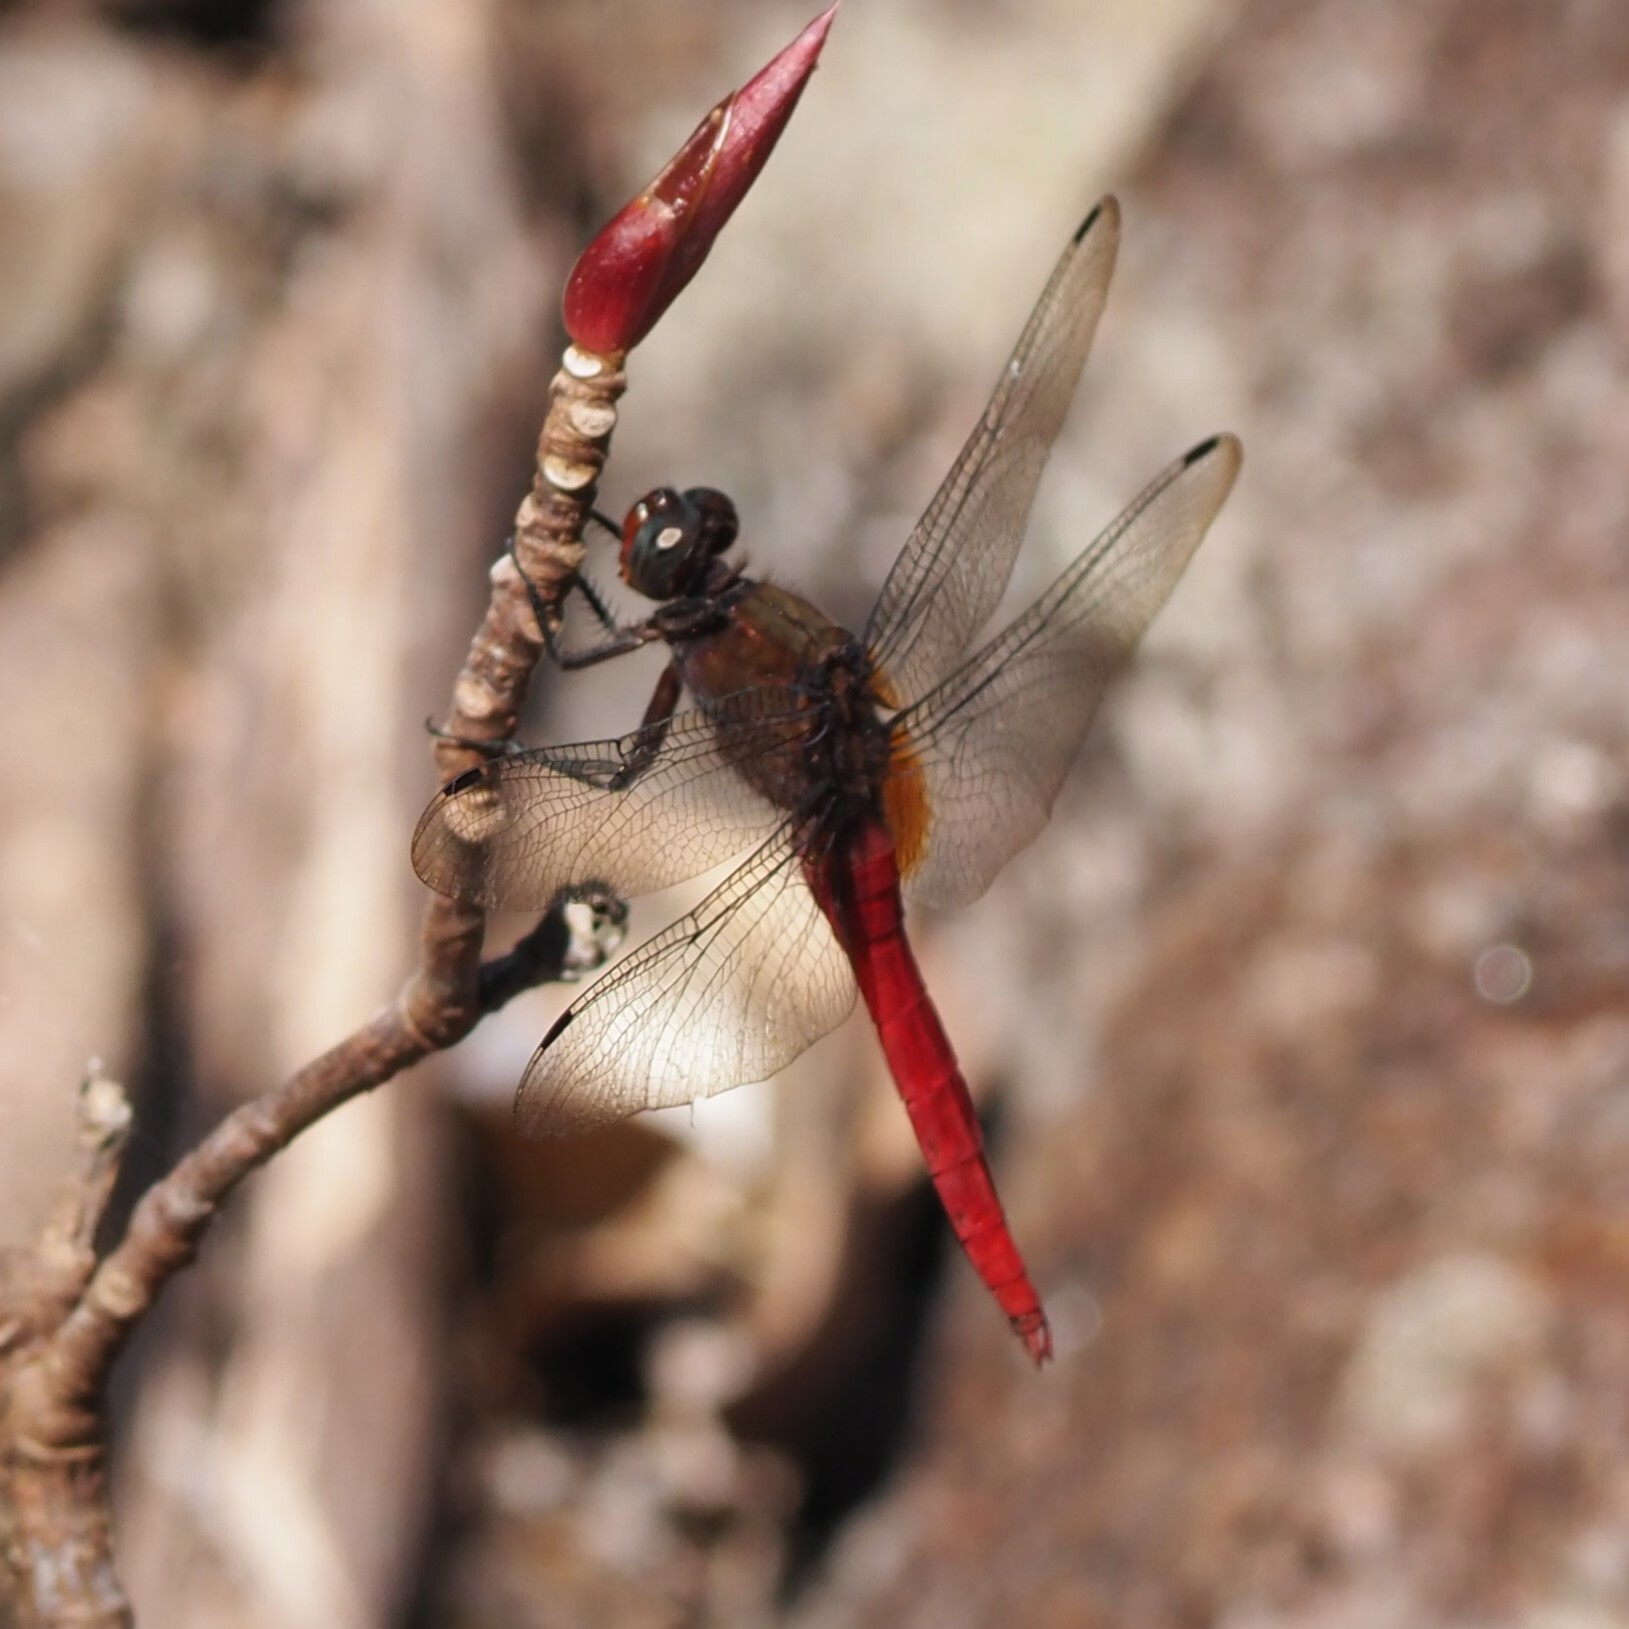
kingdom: Animalia
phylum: Arthropoda
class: Insecta
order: Odonata
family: Libellulidae
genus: Orthetrum
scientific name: Orthetrum chrysis
